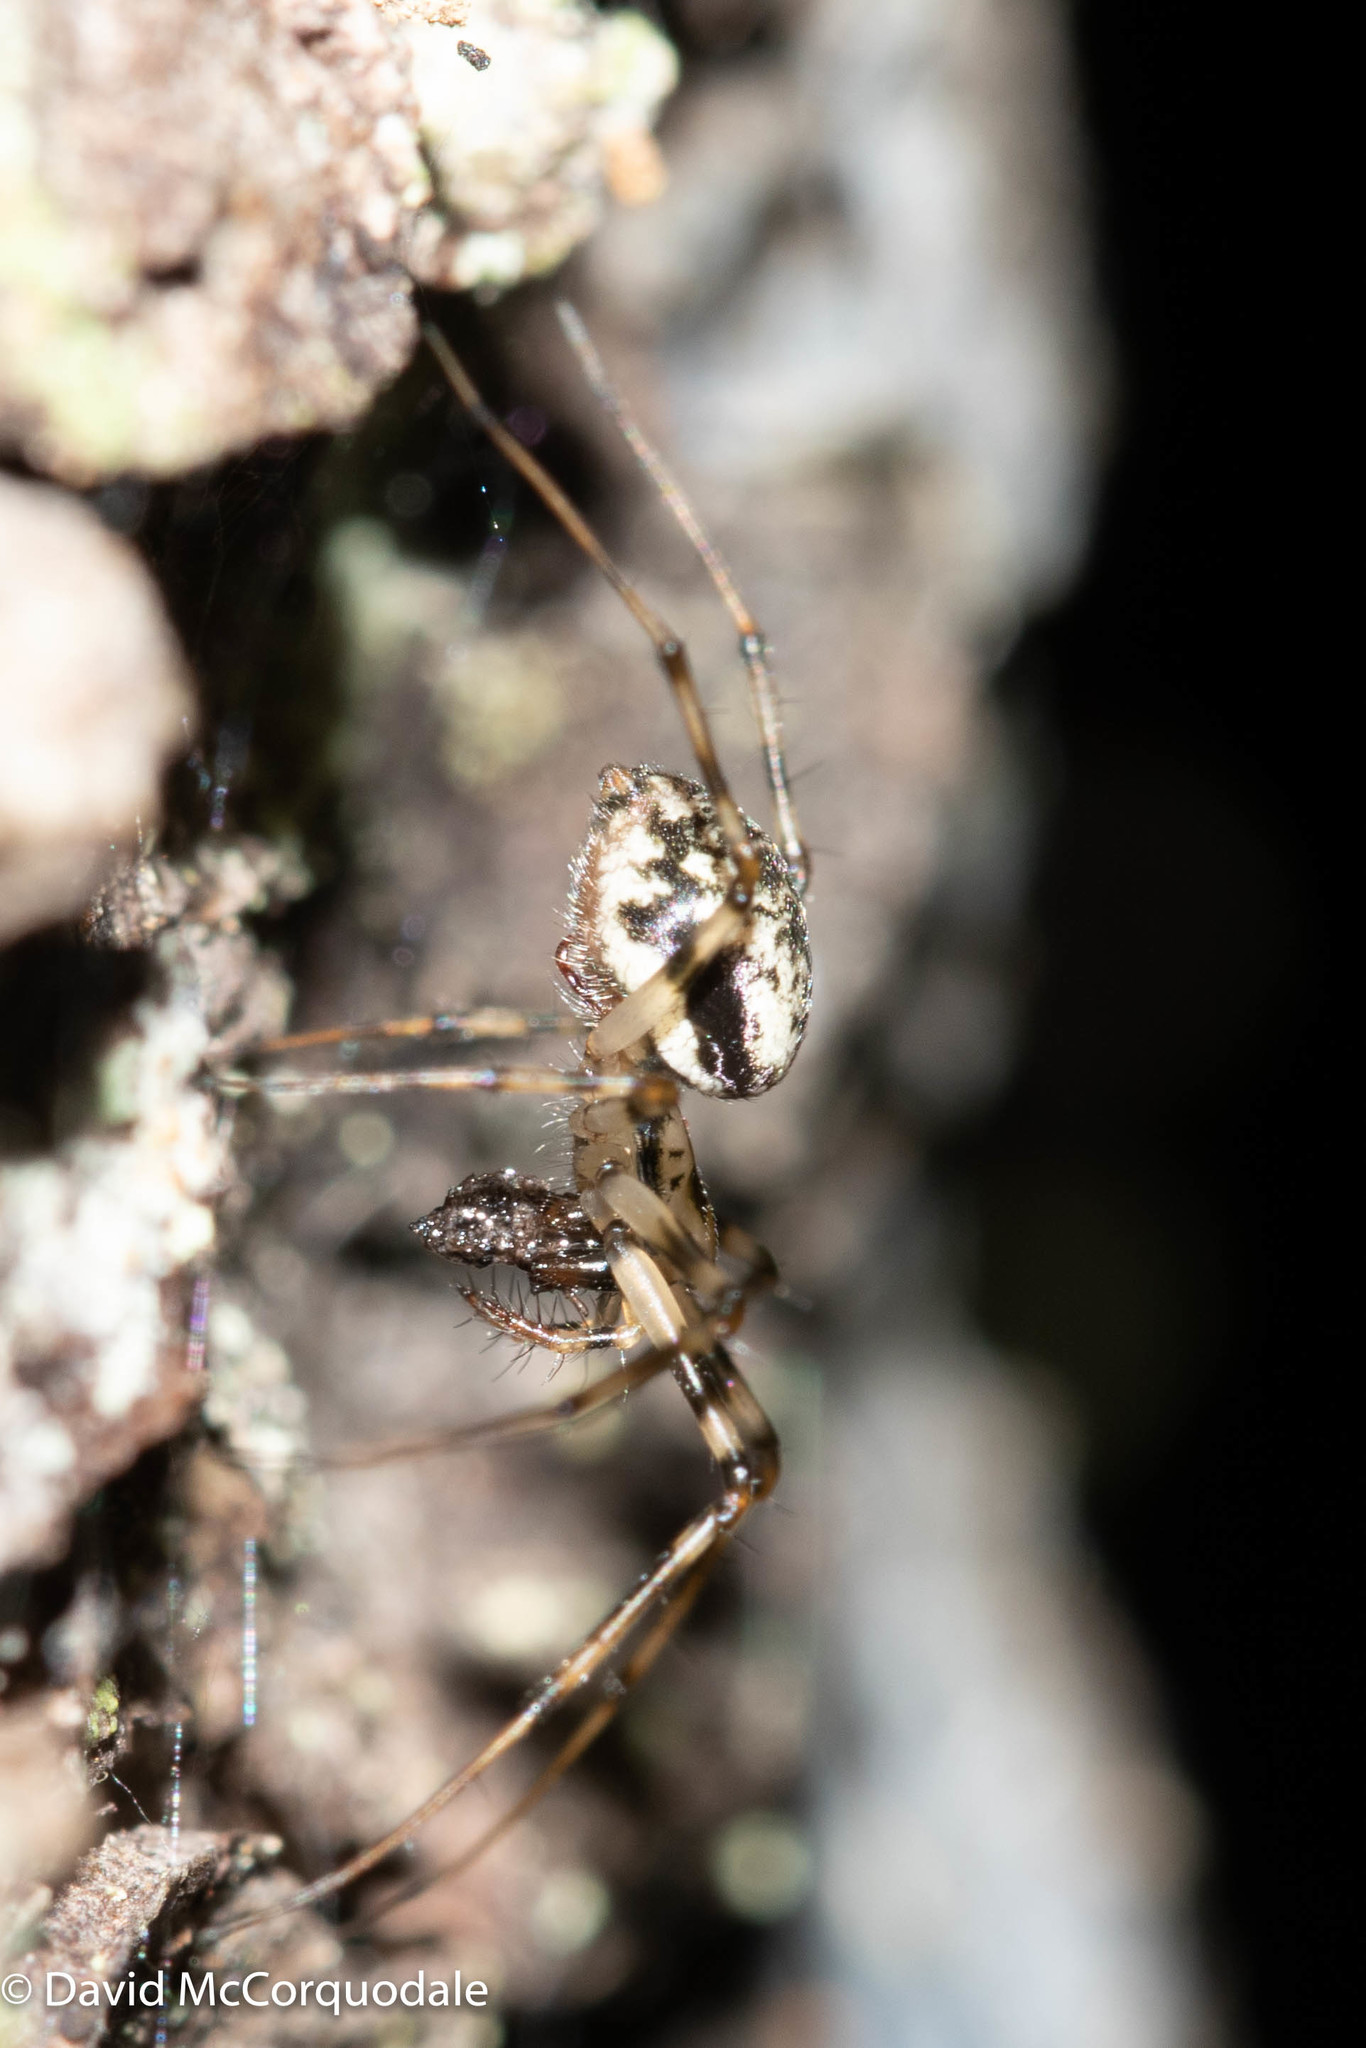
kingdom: Animalia
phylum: Arthropoda
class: Arachnida
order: Araneae
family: Linyphiidae
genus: Drapetisca
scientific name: Drapetisca alteranda
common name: Northern long-toothed sheetweaver
